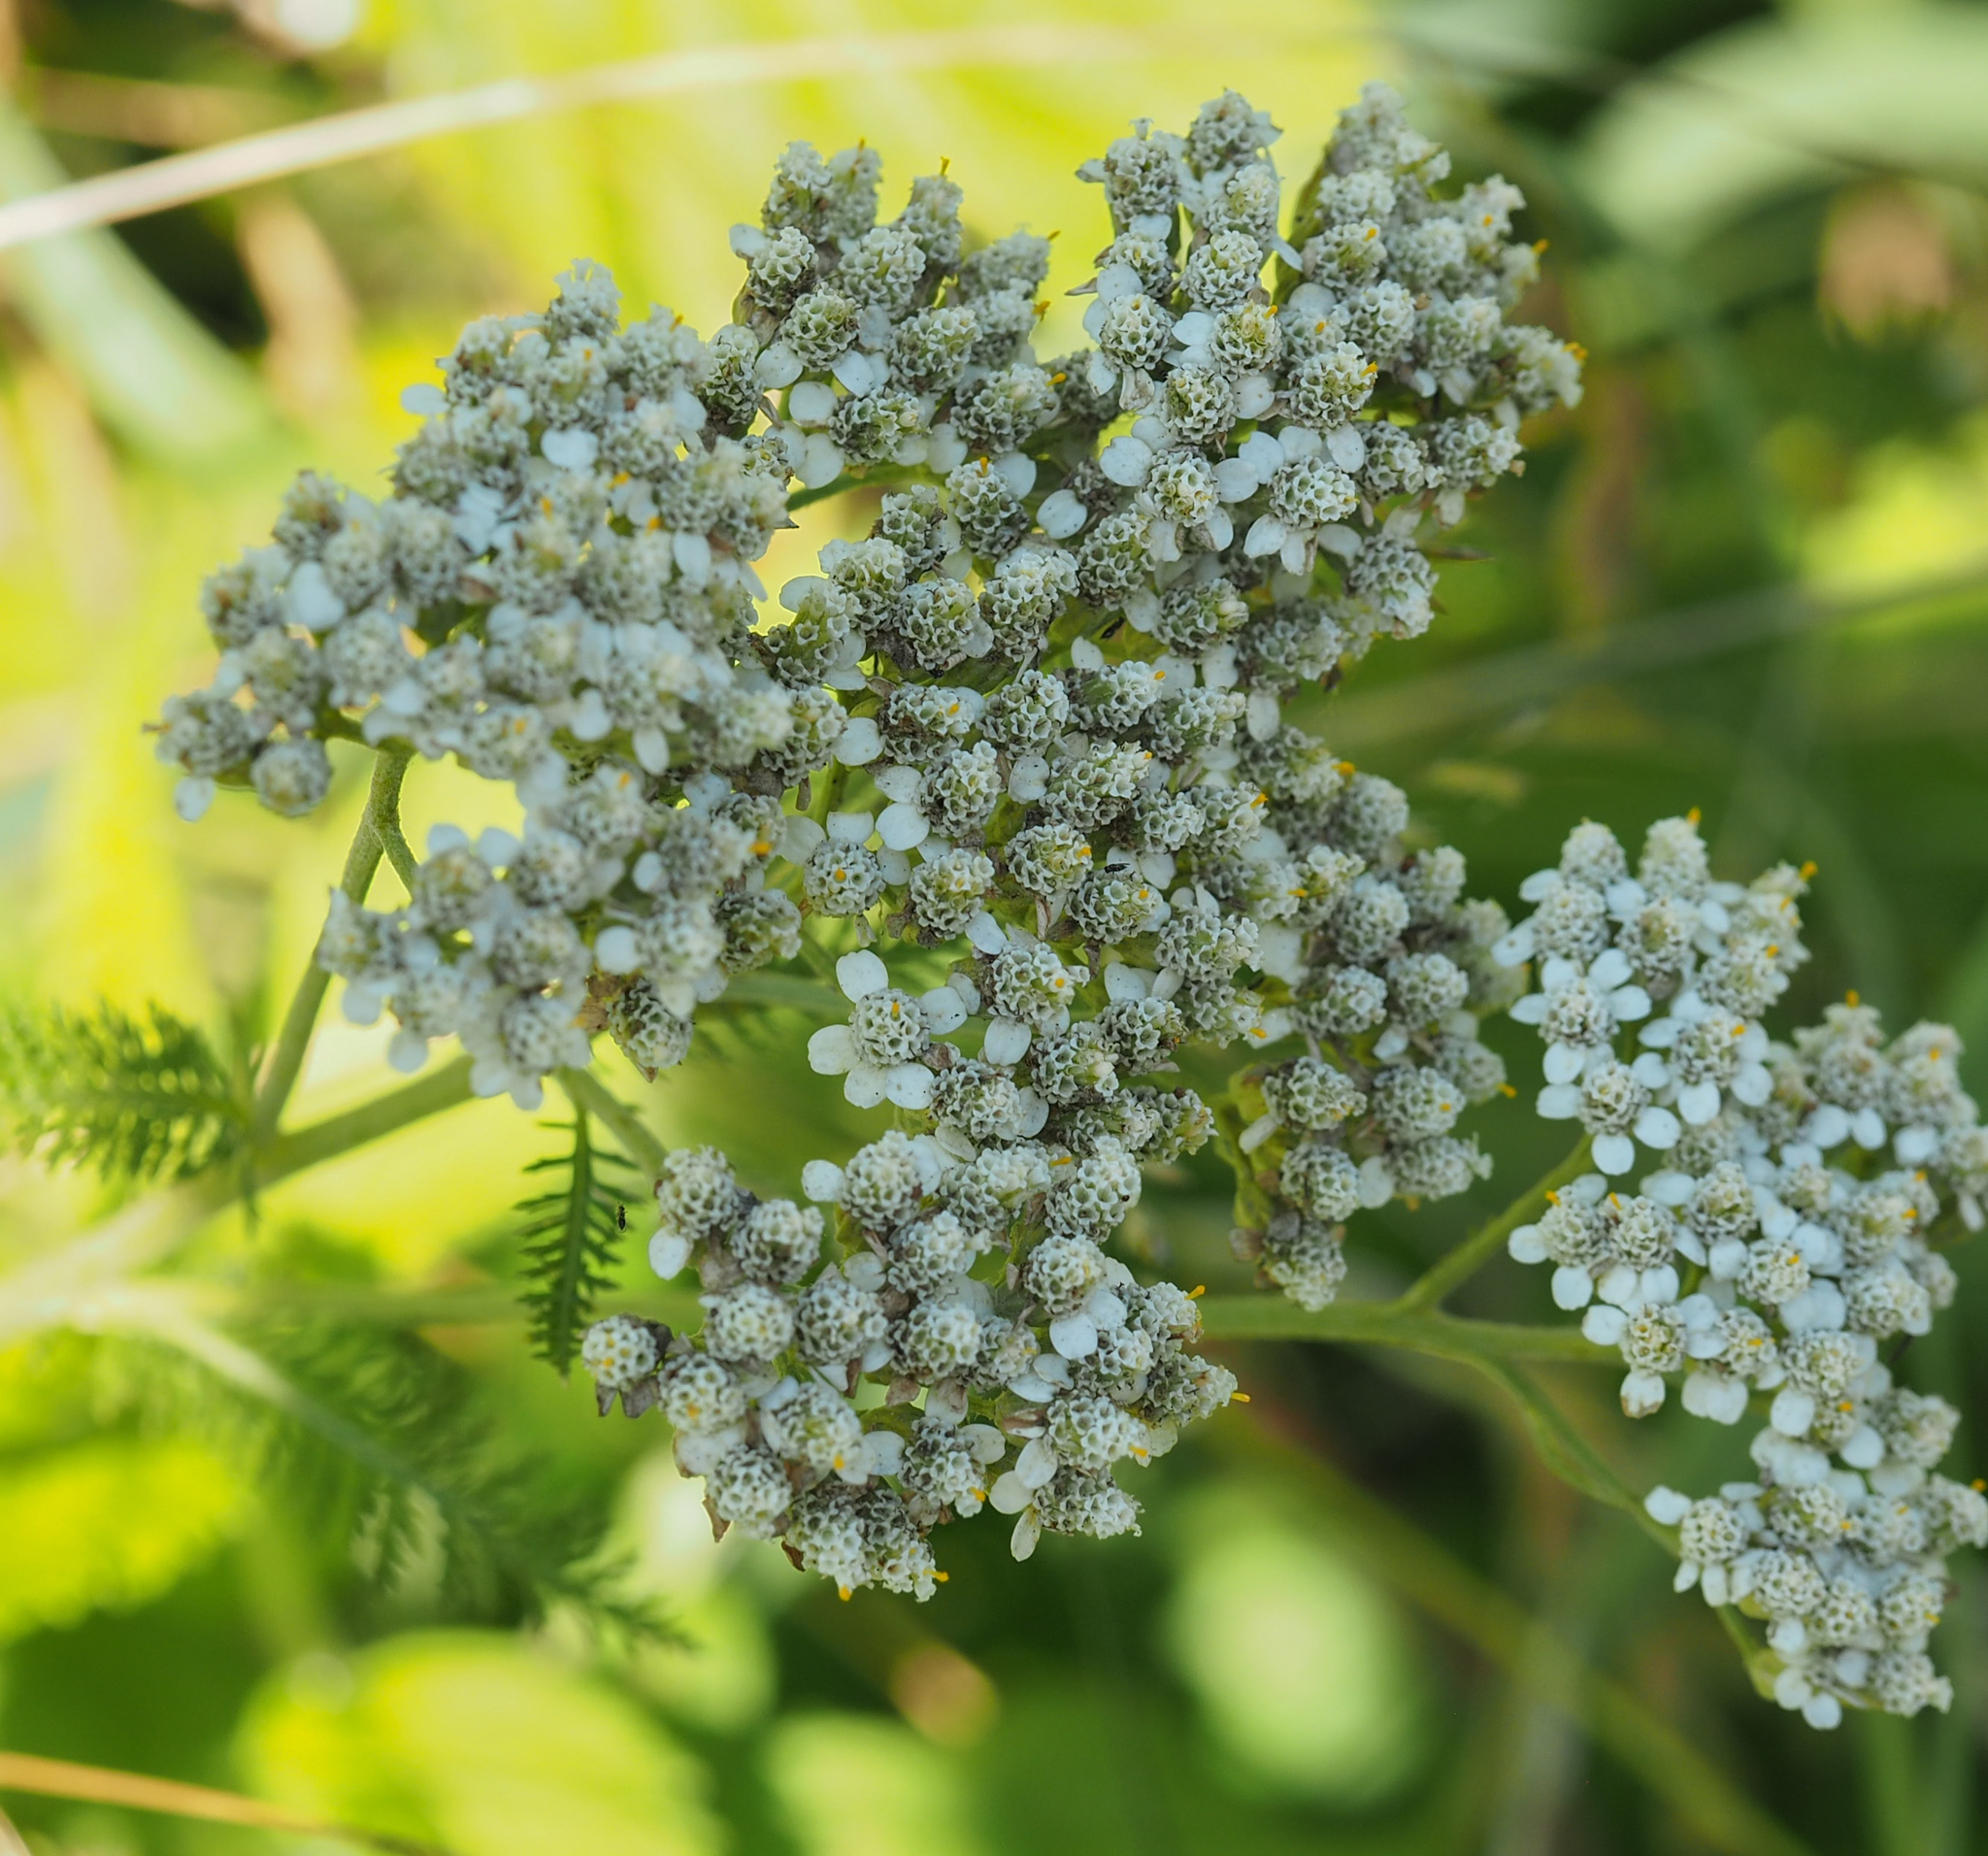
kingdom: Plantae
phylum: Tracheophyta
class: Magnoliopsida
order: Asterales
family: Asteraceae
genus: Achillea
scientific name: Achillea millefolium
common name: Yarrow
